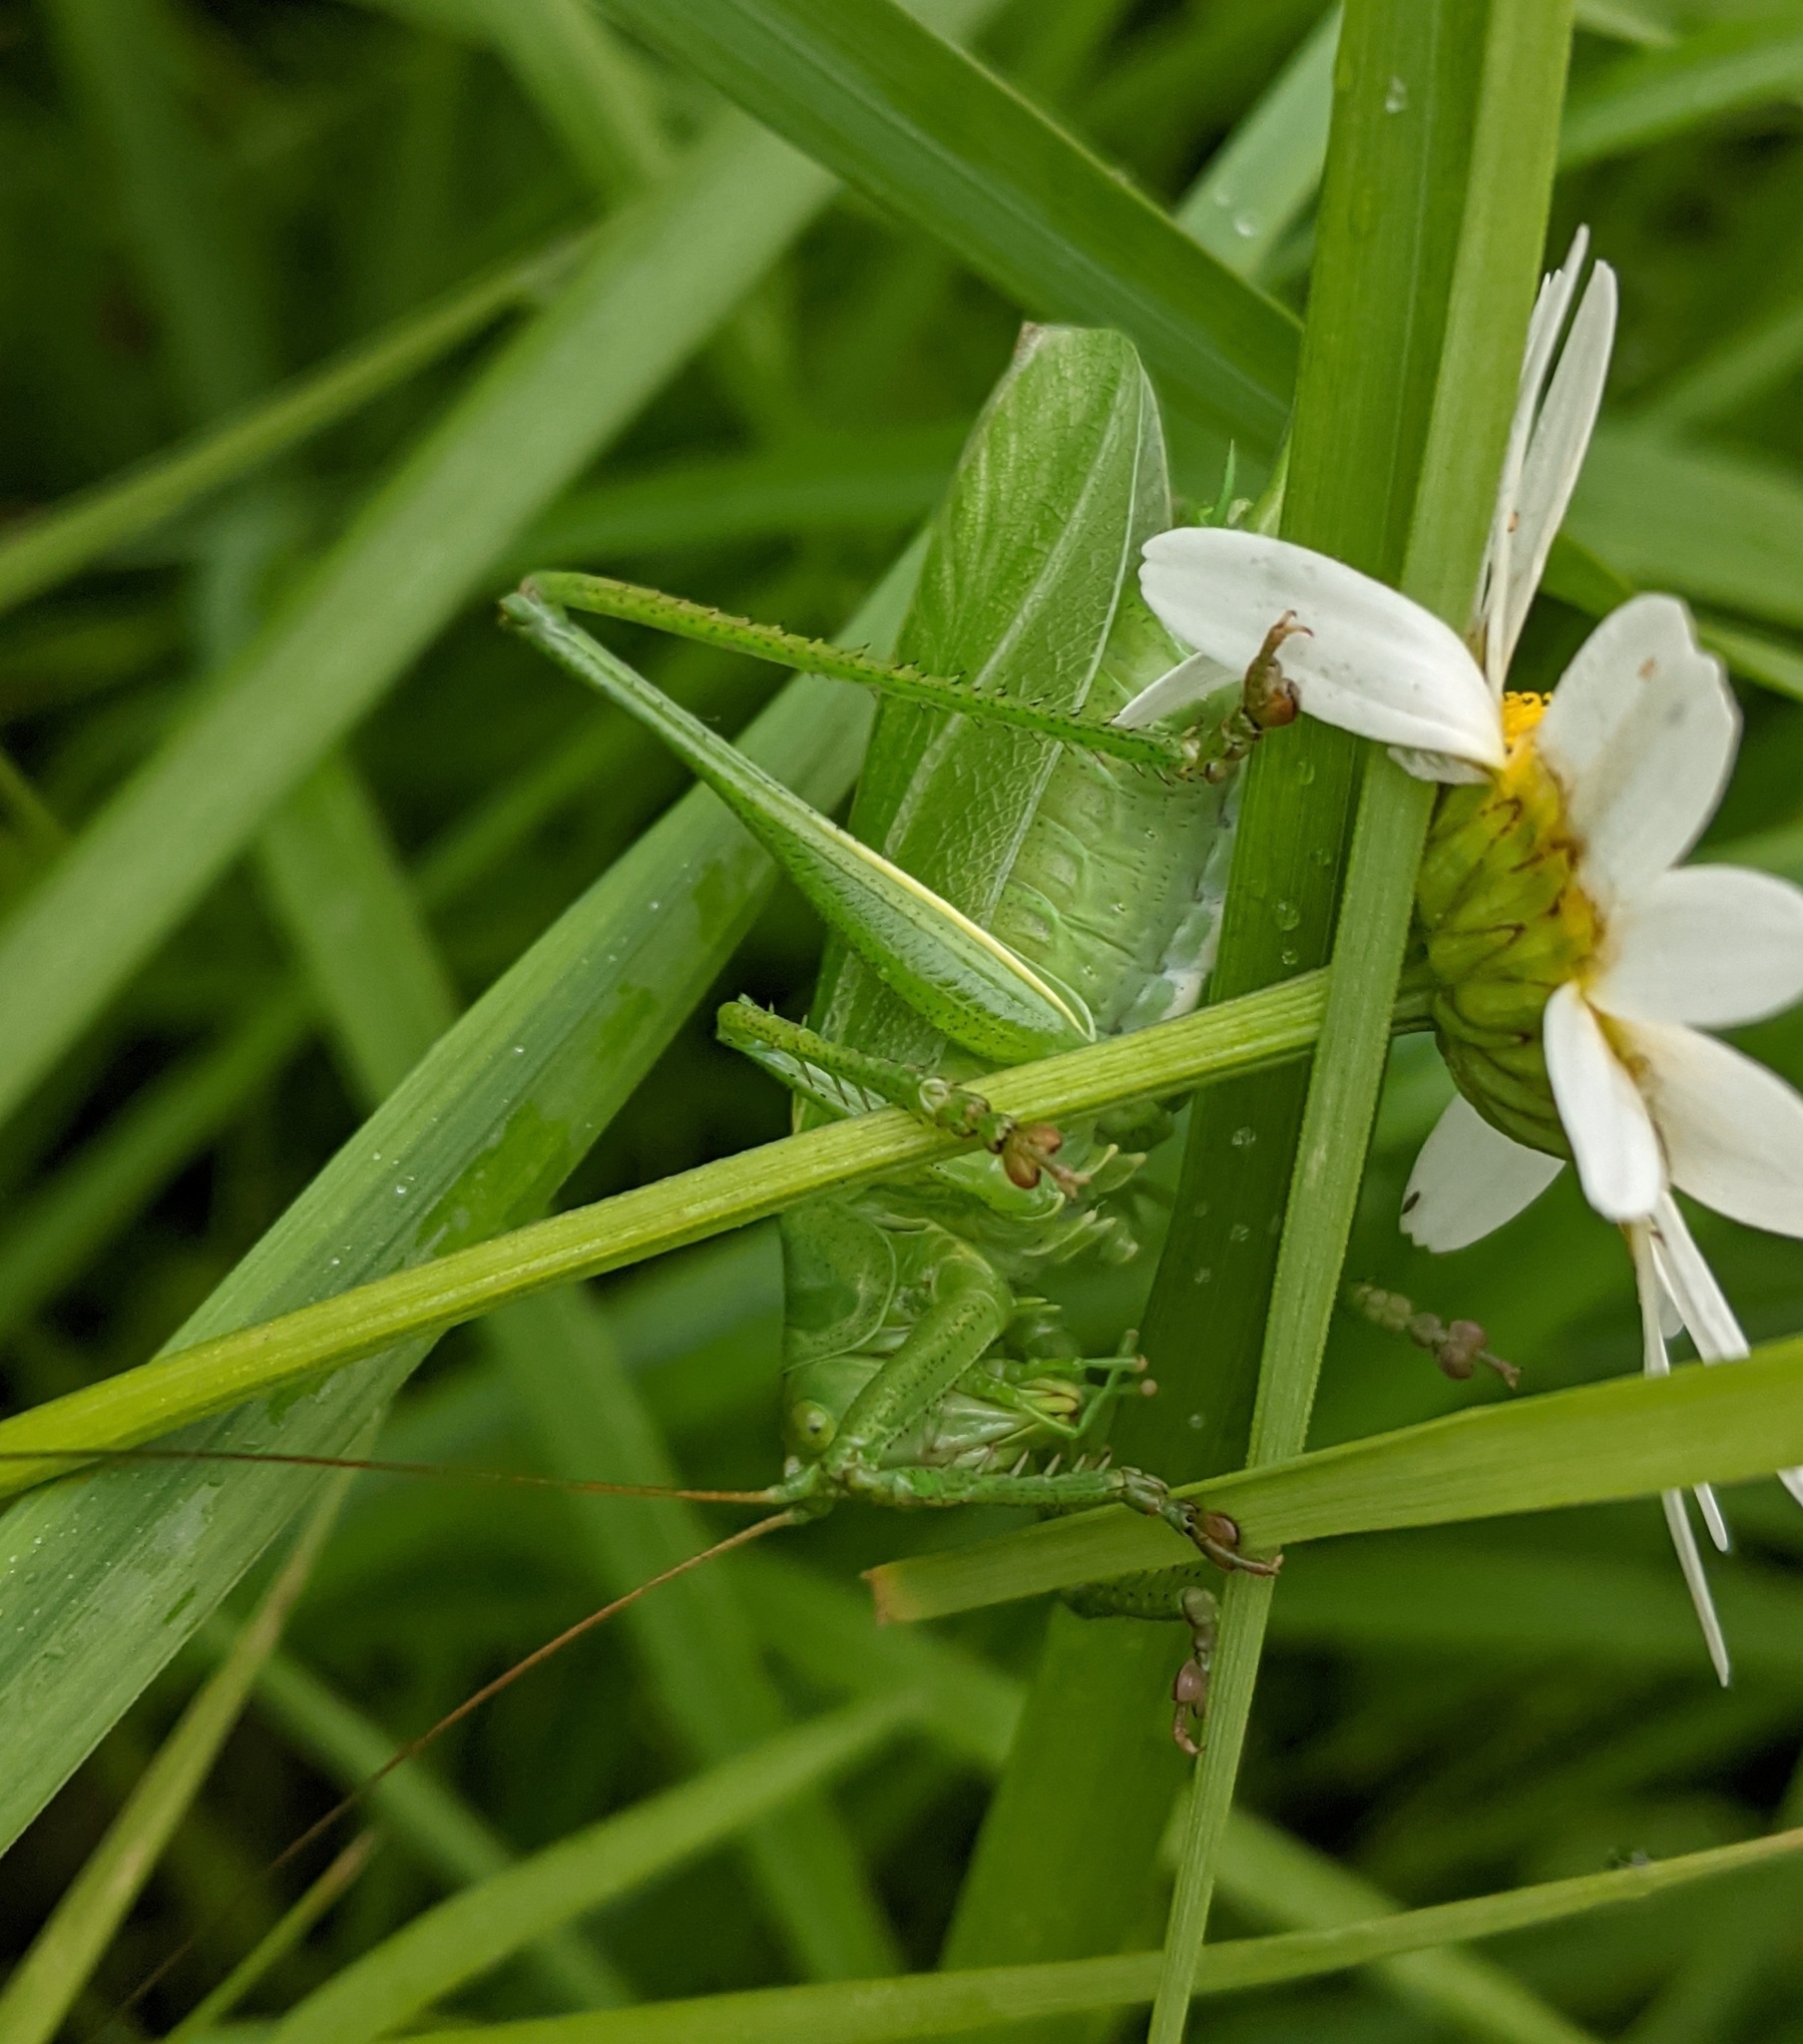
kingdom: Animalia
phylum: Arthropoda
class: Insecta
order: Orthoptera
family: Tettigoniidae
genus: Tettigonia
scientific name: Tettigonia cantans
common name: Upland green bush-cricket
